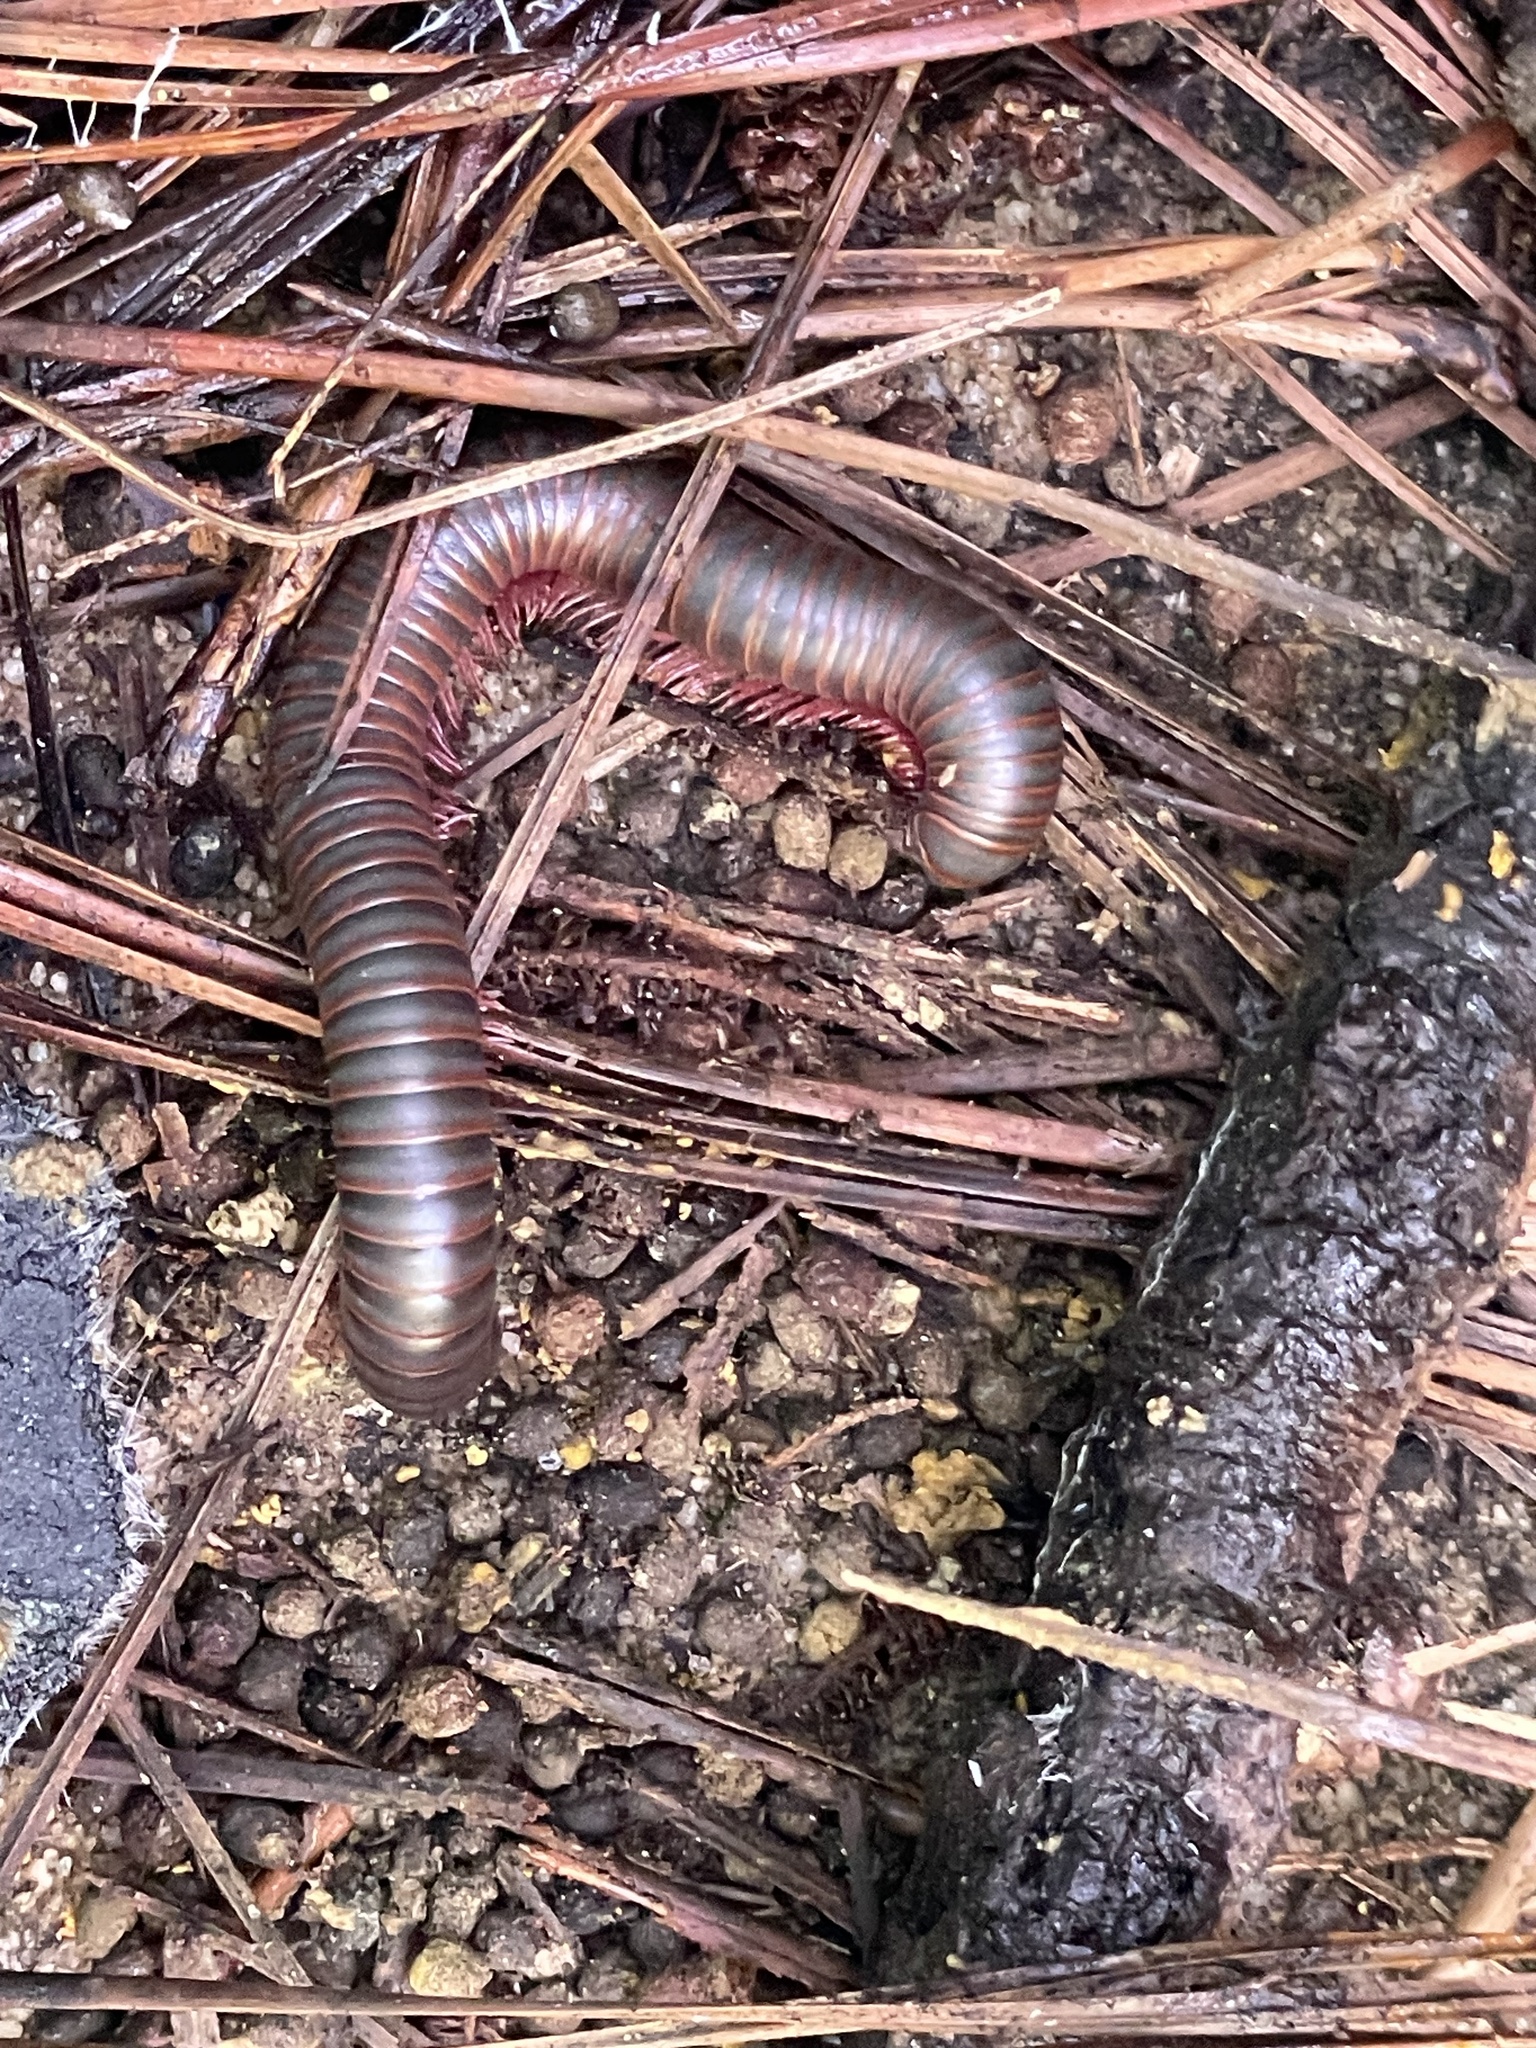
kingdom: Animalia
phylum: Arthropoda
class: Diplopoda
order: Spirobolida
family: Spirobolidae
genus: Narceus
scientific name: Narceus americanus
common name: American giant millipede
